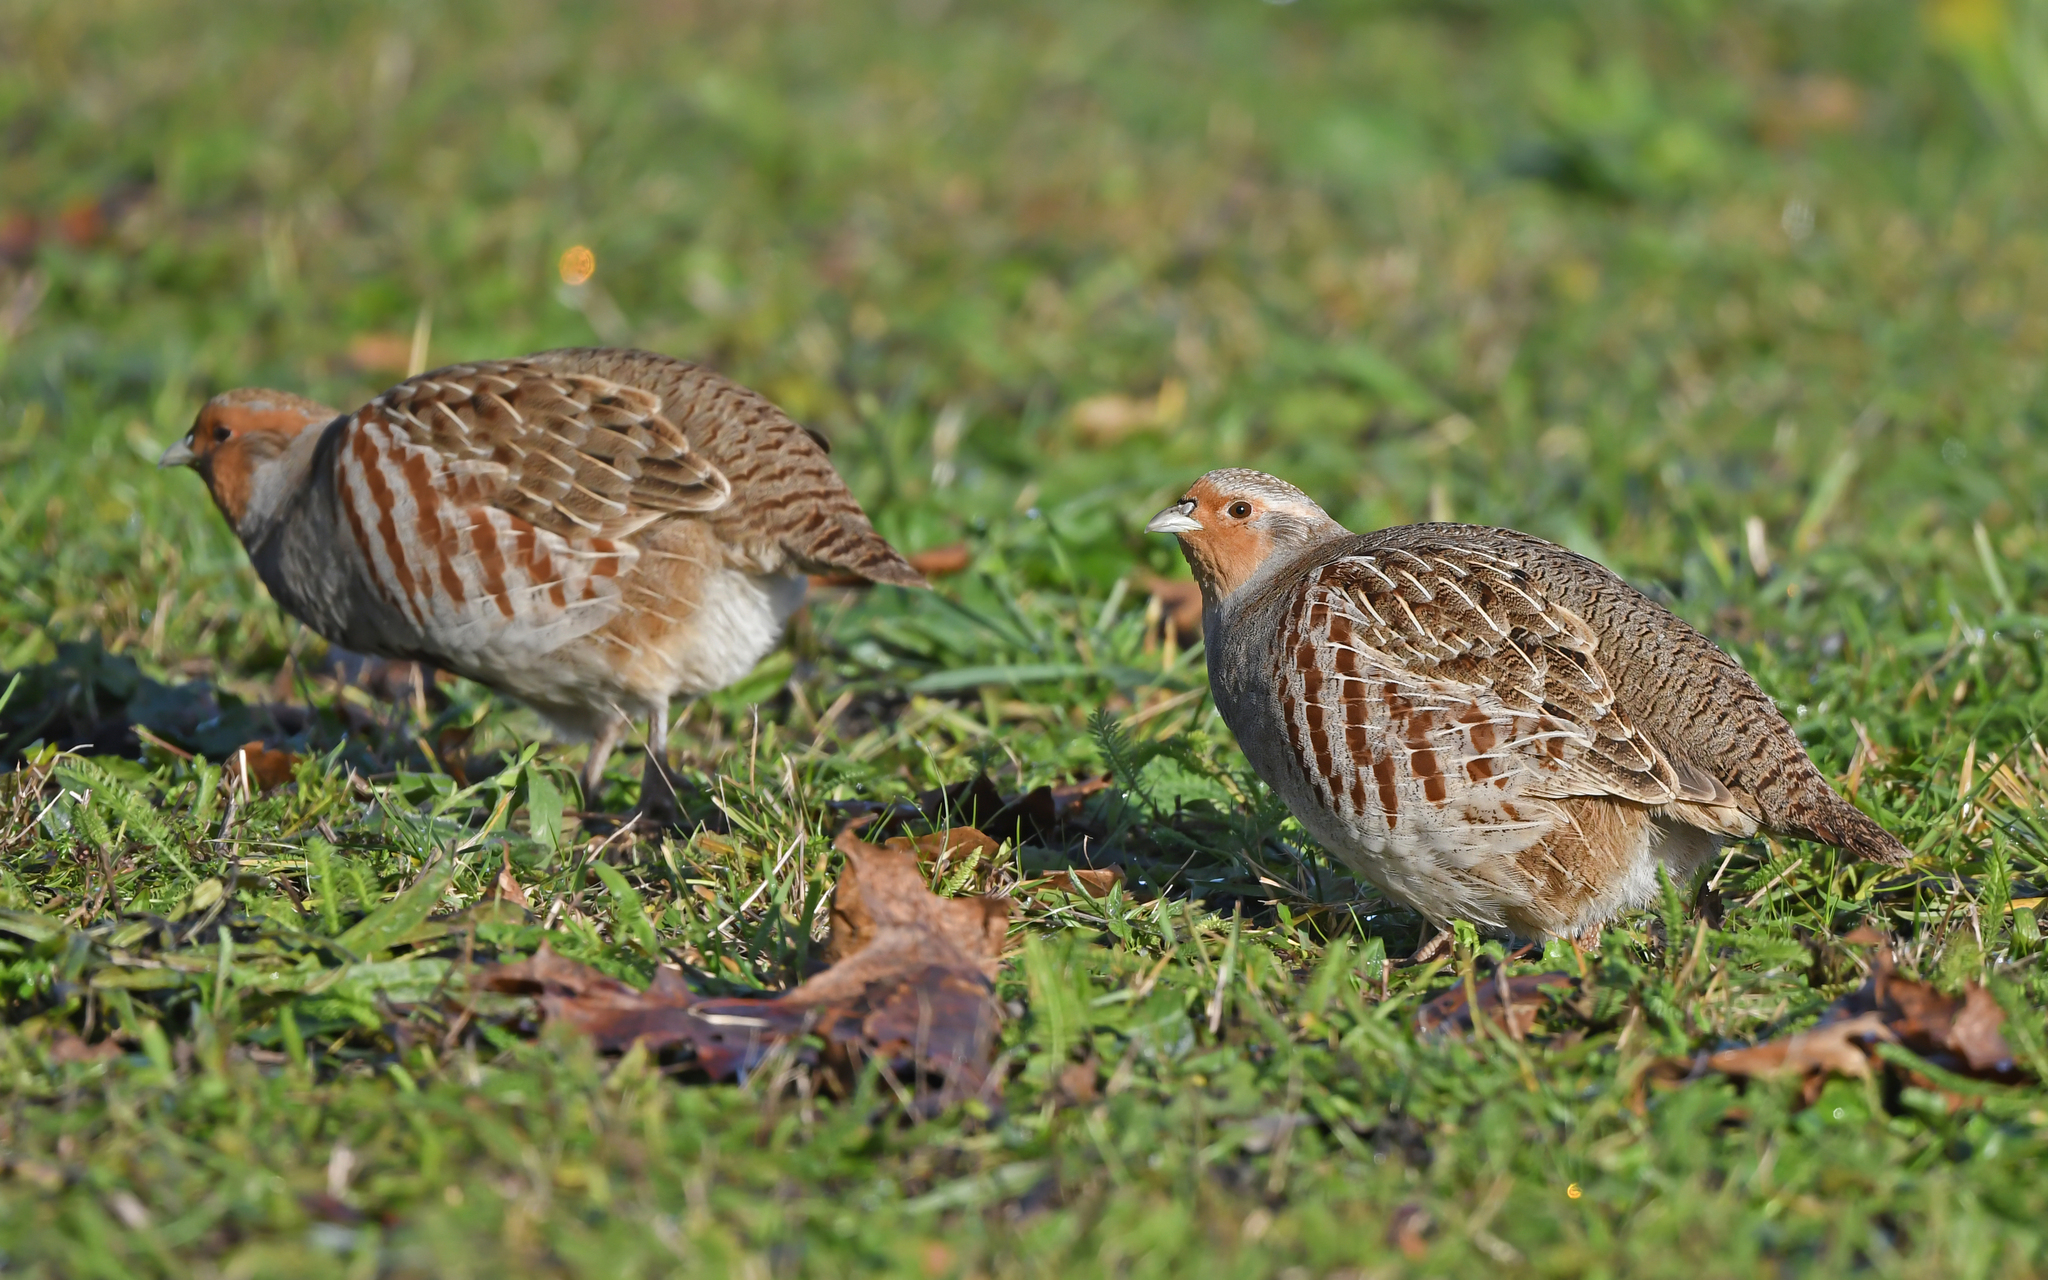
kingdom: Animalia
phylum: Chordata
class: Aves
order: Galliformes
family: Phasianidae
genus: Perdix
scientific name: Perdix perdix
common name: Grey partridge
